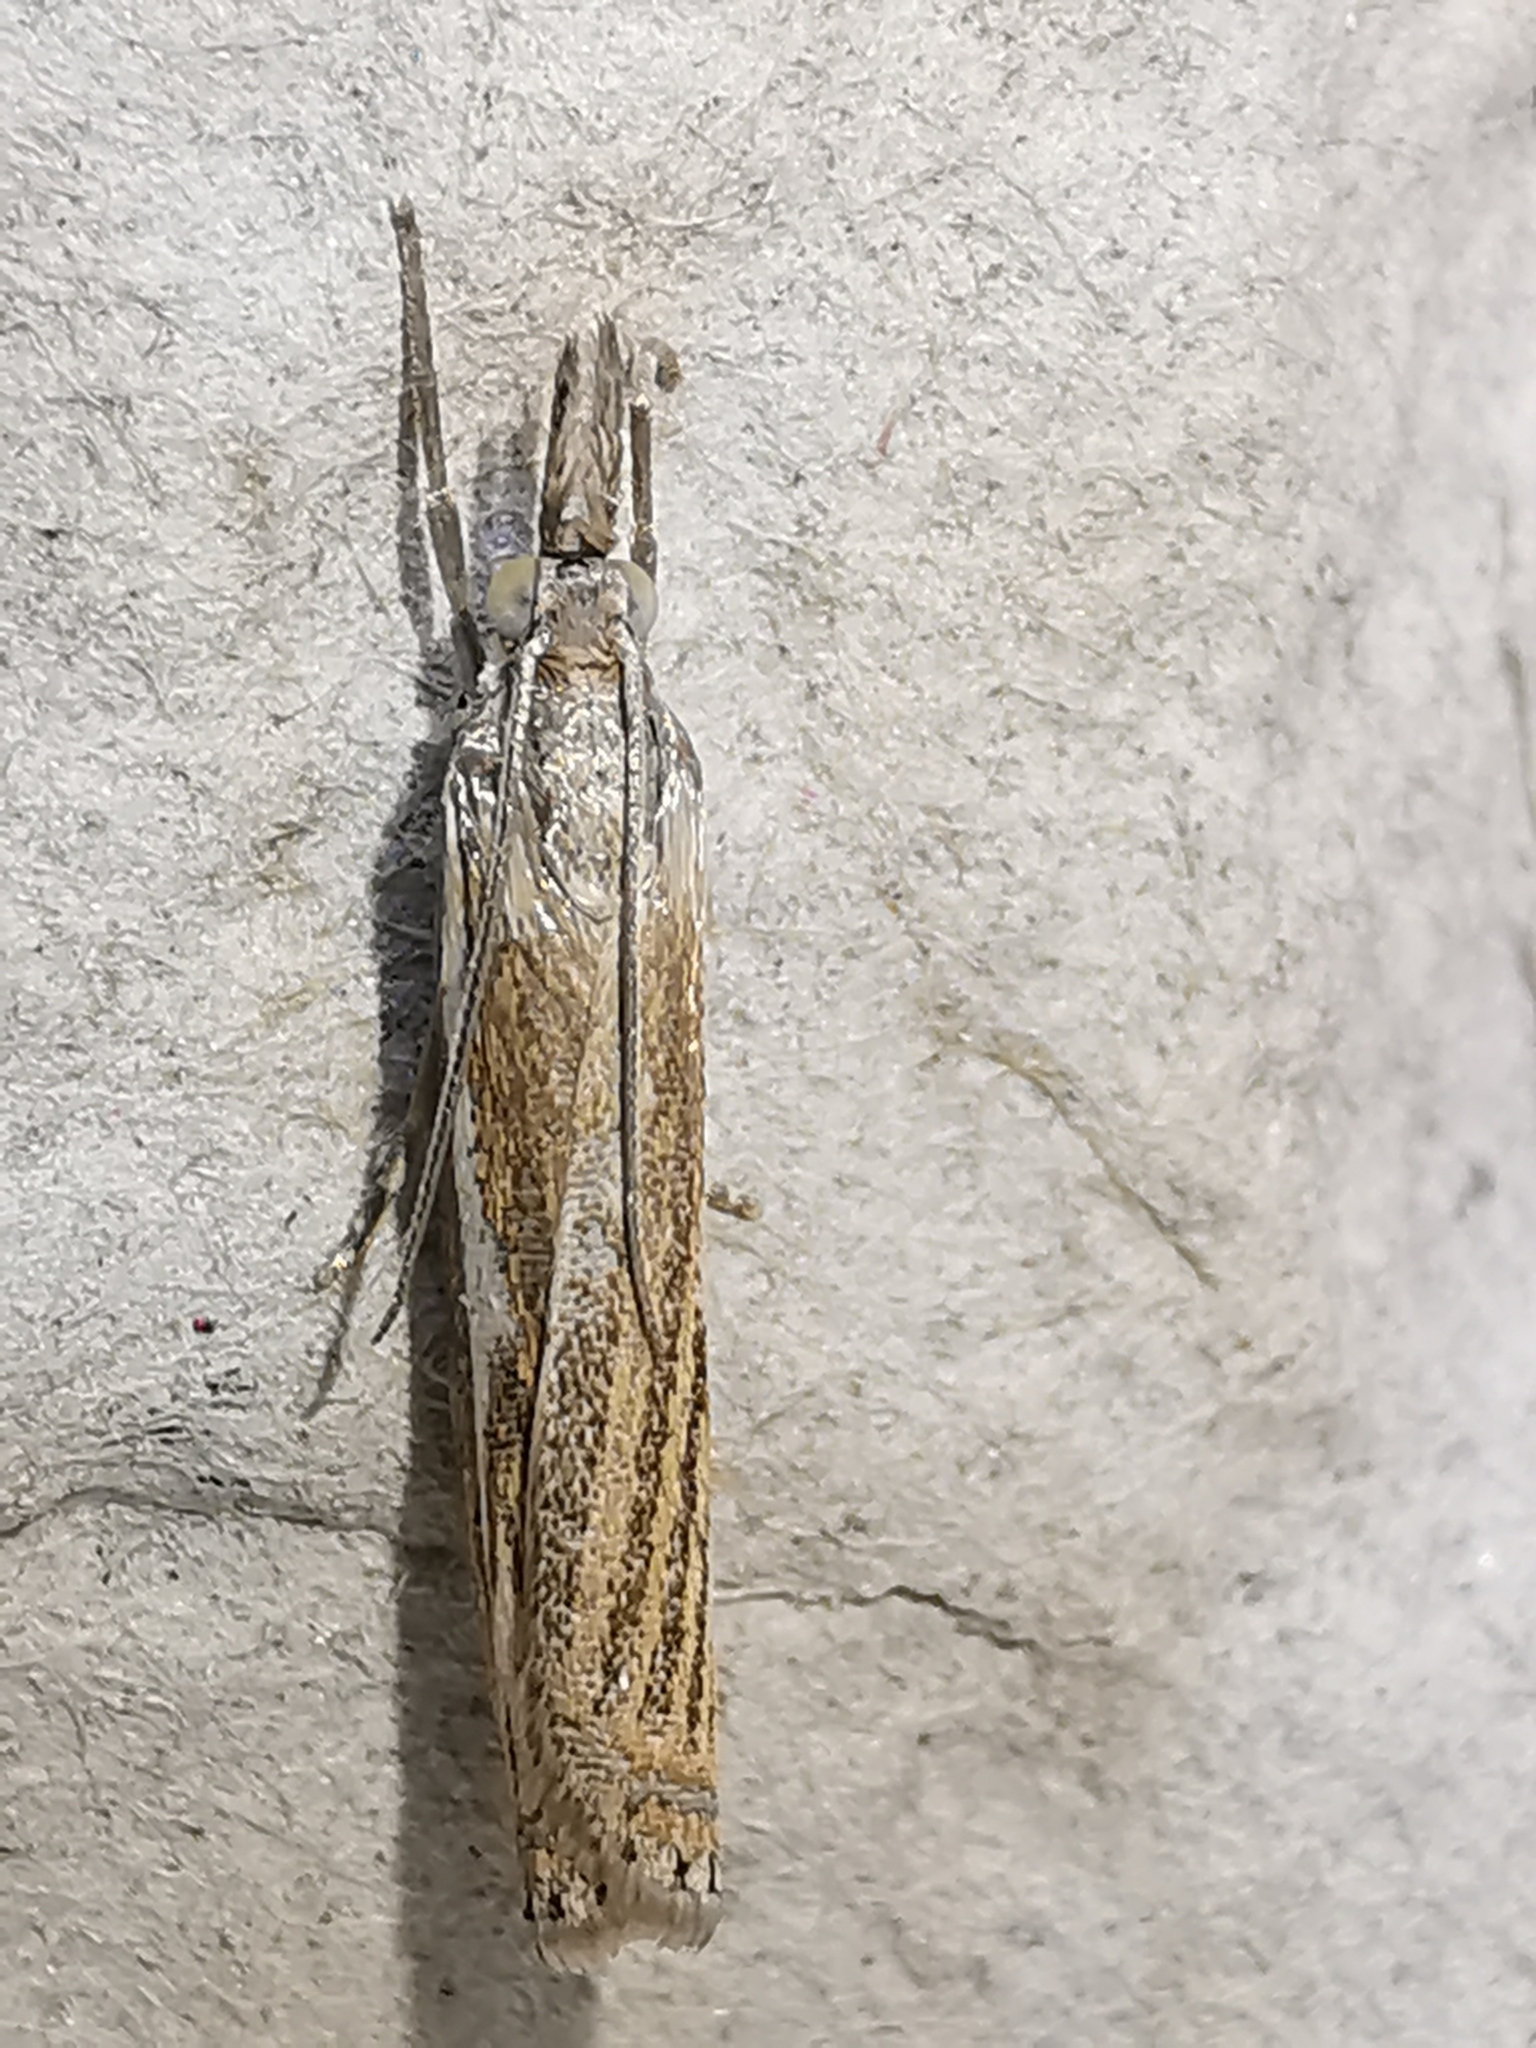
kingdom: Animalia
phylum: Arthropoda
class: Insecta
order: Lepidoptera
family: Crambidae
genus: Crambus
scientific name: Crambus nemorella
